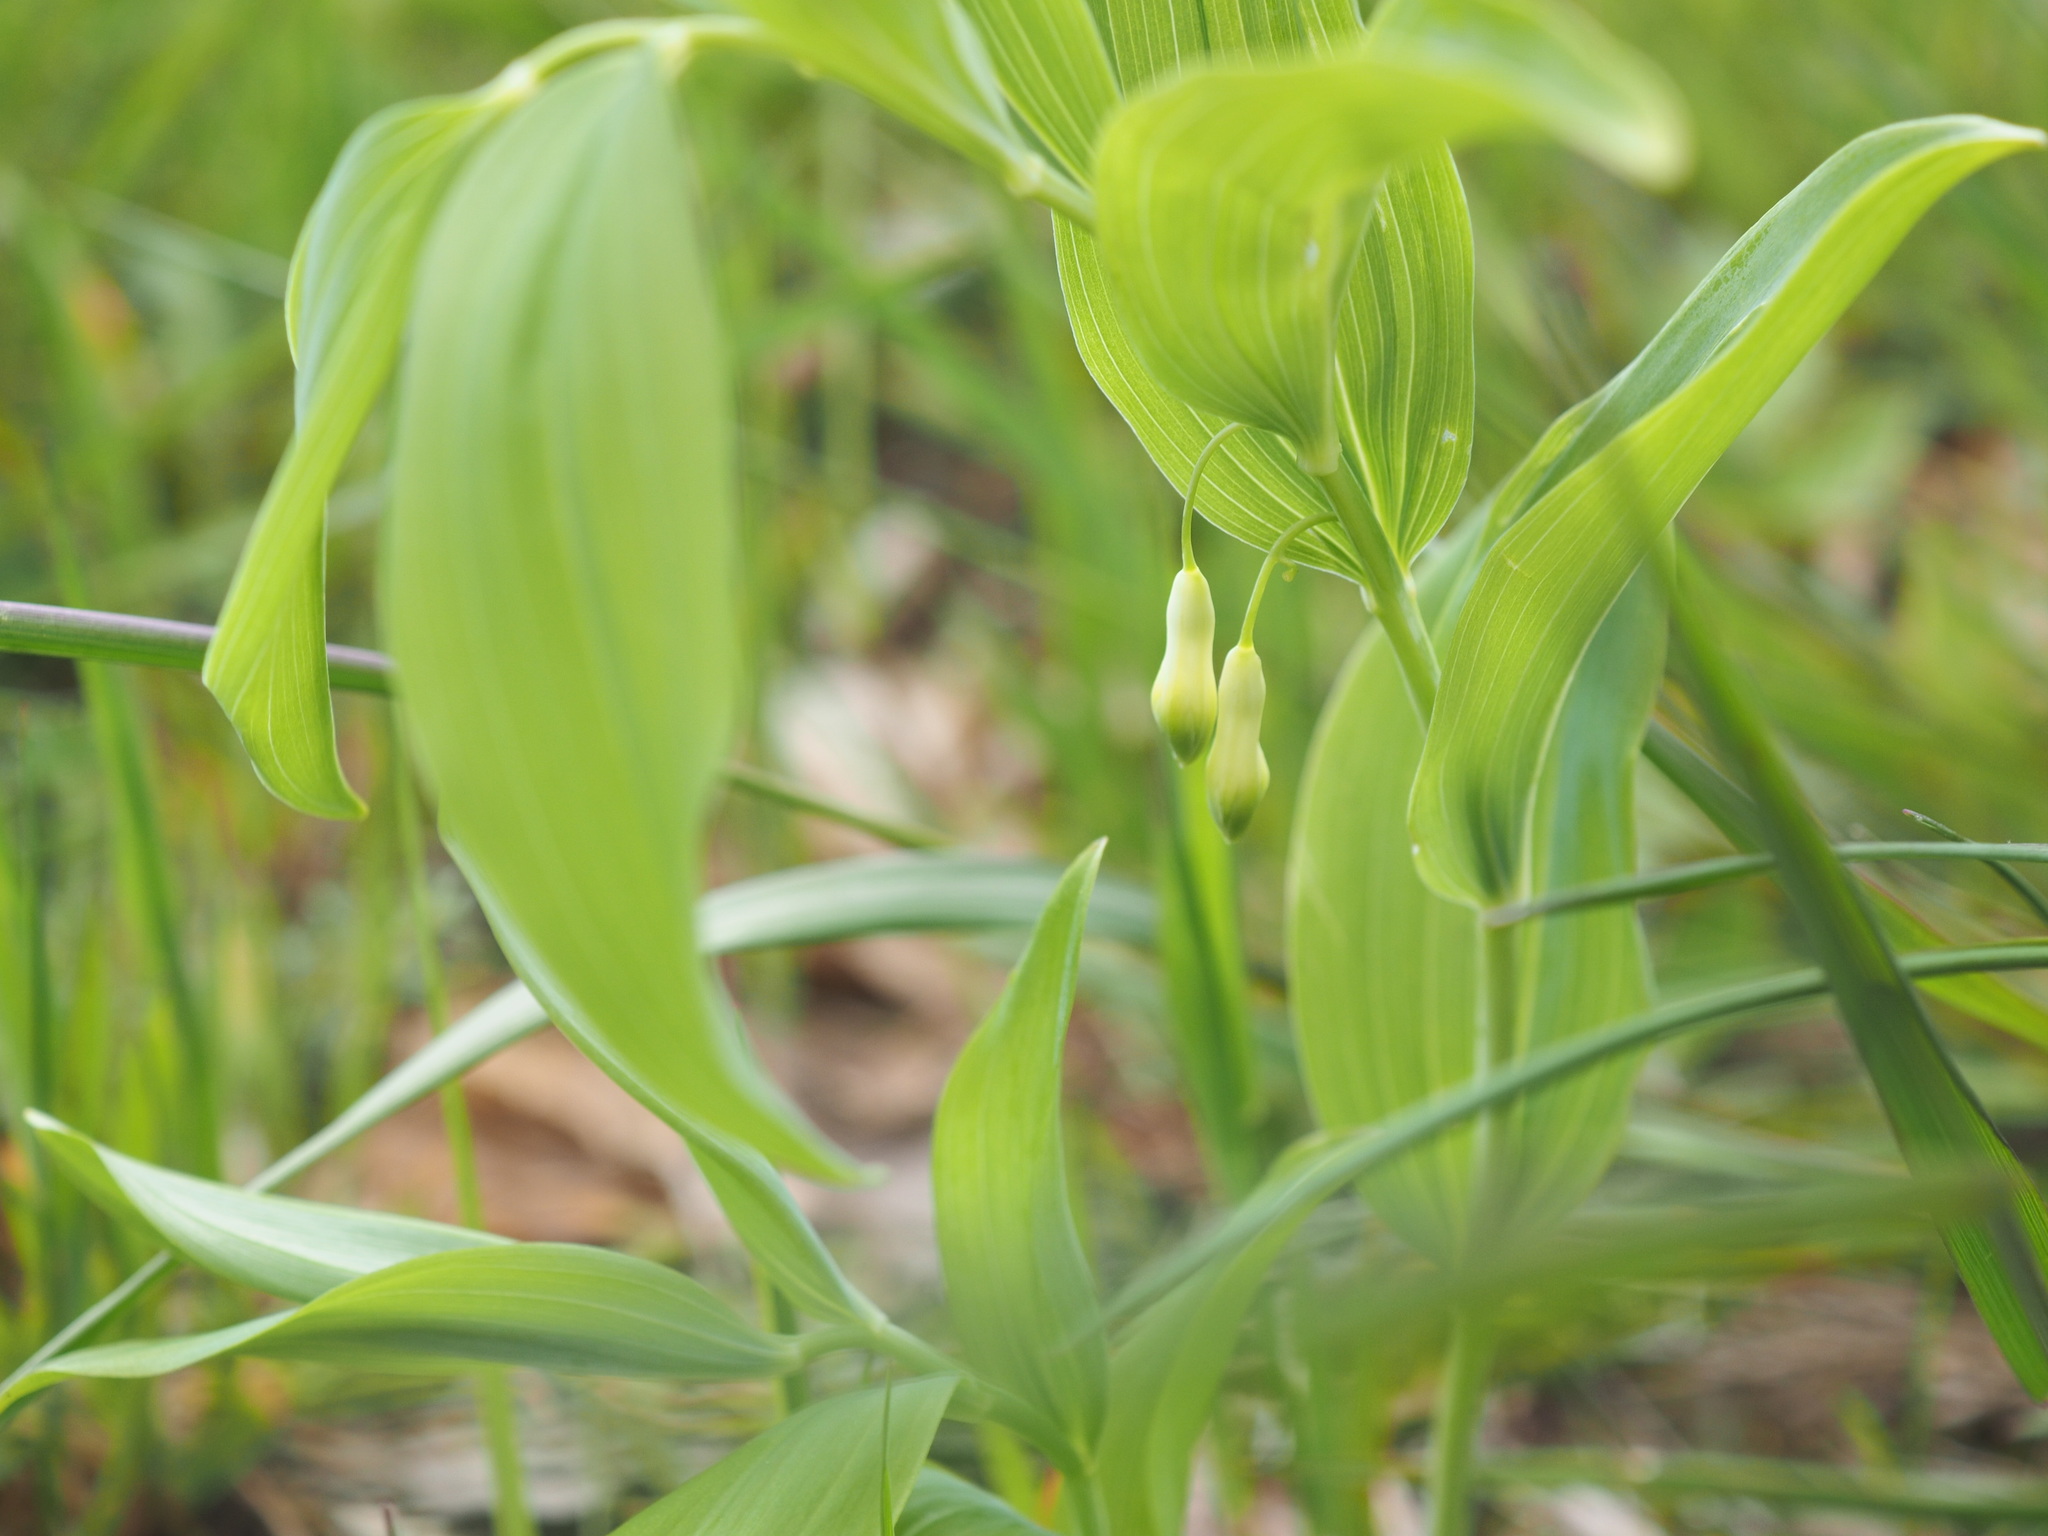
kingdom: Plantae
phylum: Tracheophyta
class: Liliopsida
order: Asparagales
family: Asparagaceae
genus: Polygonatum
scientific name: Polygonatum multiflorum
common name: Solomon's-seal
